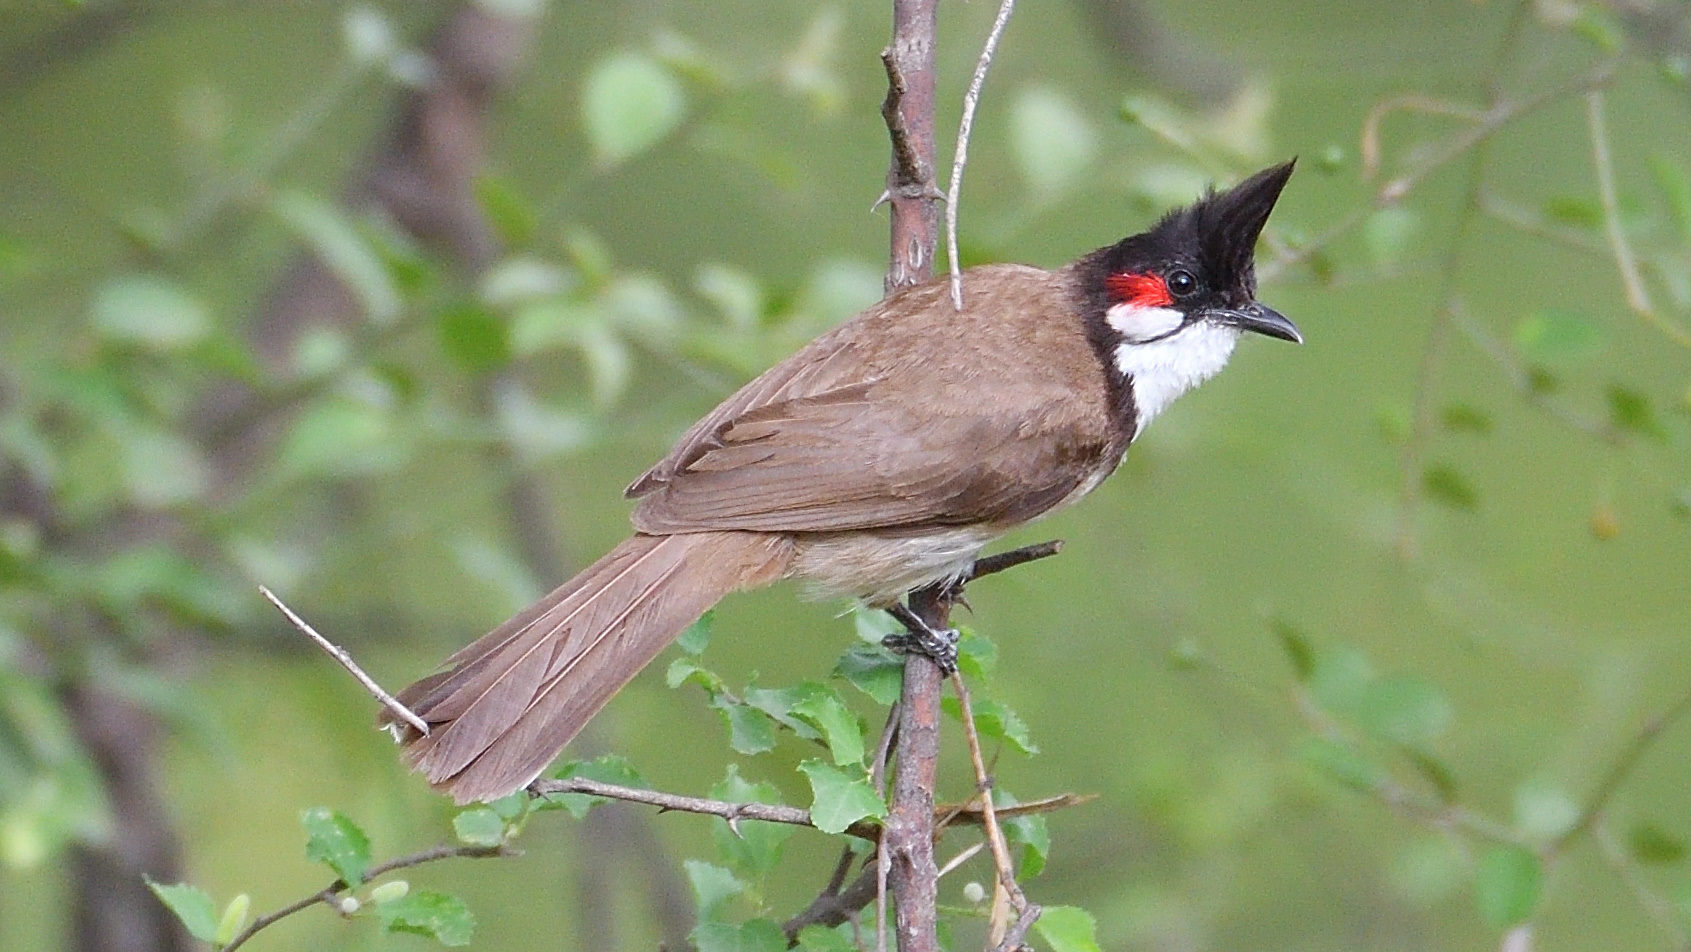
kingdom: Animalia
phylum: Chordata
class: Aves
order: Passeriformes
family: Pycnonotidae
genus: Pycnonotus
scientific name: Pycnonotus jocosus
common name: Red-whiskered bulbul
